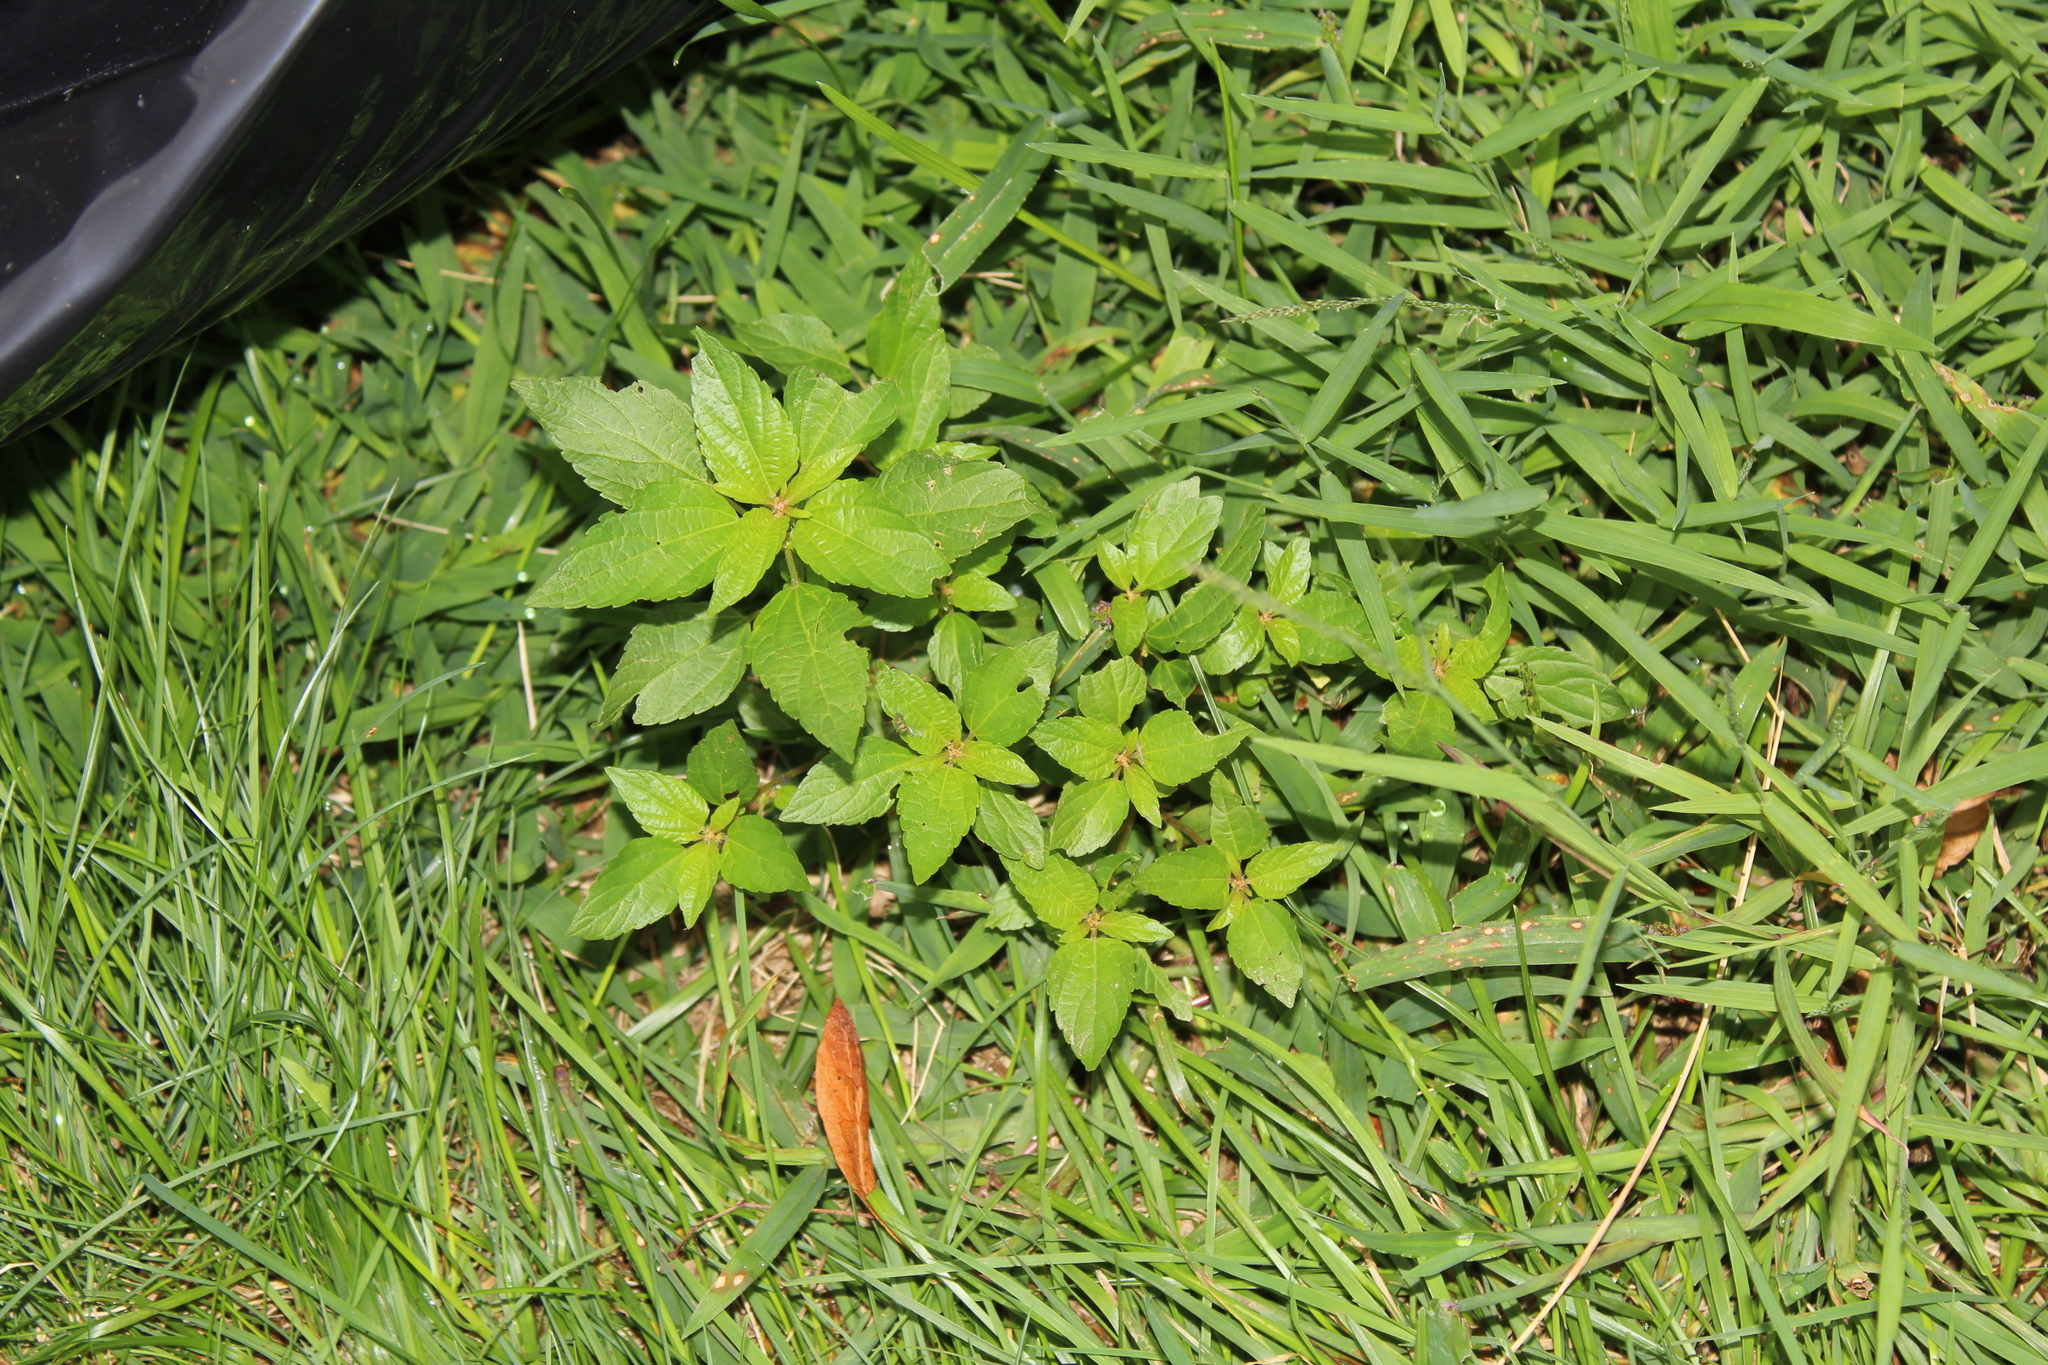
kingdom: Plantae
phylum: Tracheophyta
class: Magnoliopsida
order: Malpighiales
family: Euphorbiaceae
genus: Acalypha
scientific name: Acalypha rhomboidea
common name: Rhombic copperleaf
